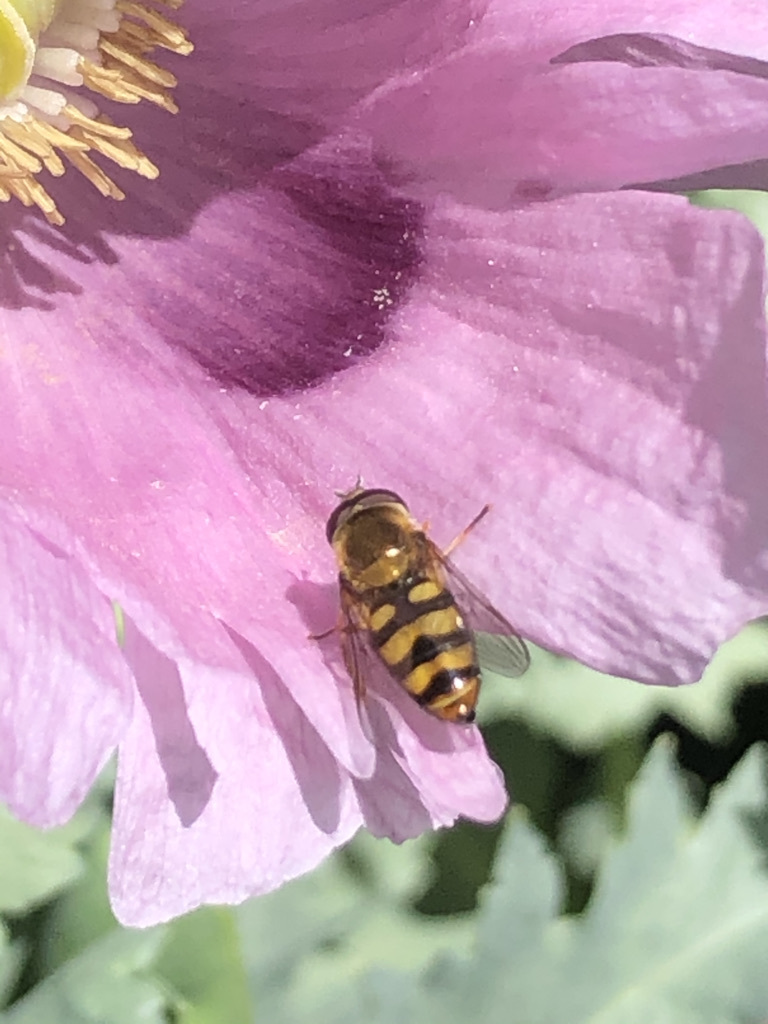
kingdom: Animalia
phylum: Arthropoda
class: Insecta
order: Diptera
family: Syrphidae
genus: Eupeodes
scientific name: Eupeodes fumipennis
